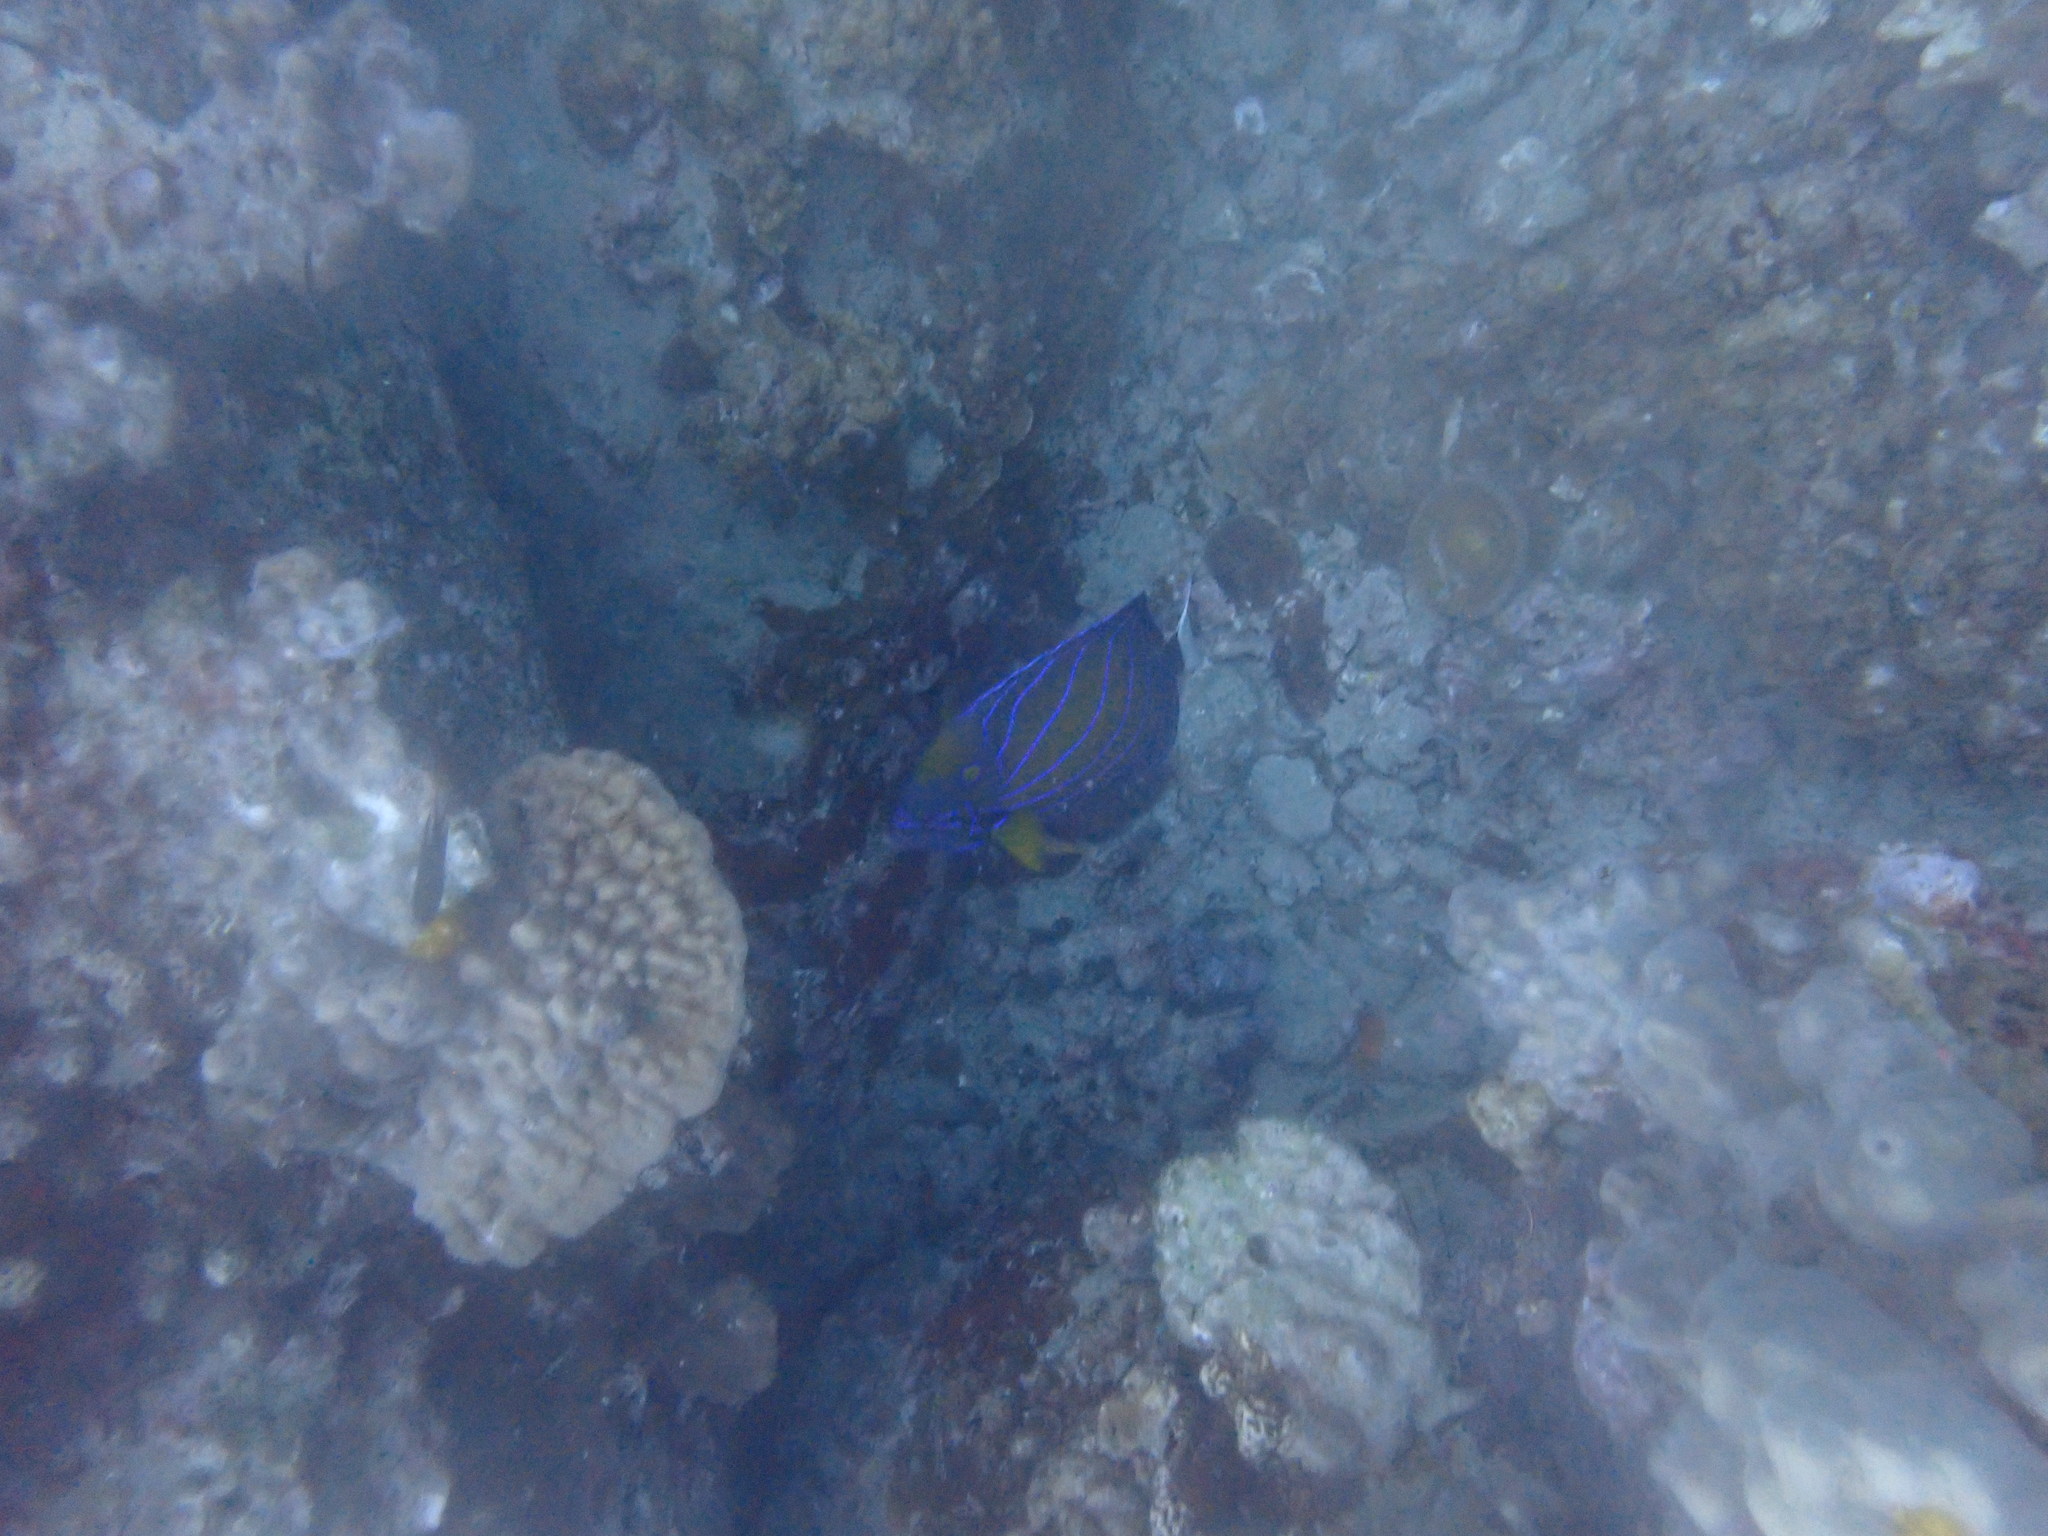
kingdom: Animalia
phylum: Chordata
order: Perciformes
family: Pomacanthidae
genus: Pomacanthus
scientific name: Pomacanthus annularis
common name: Bluering angelfish
